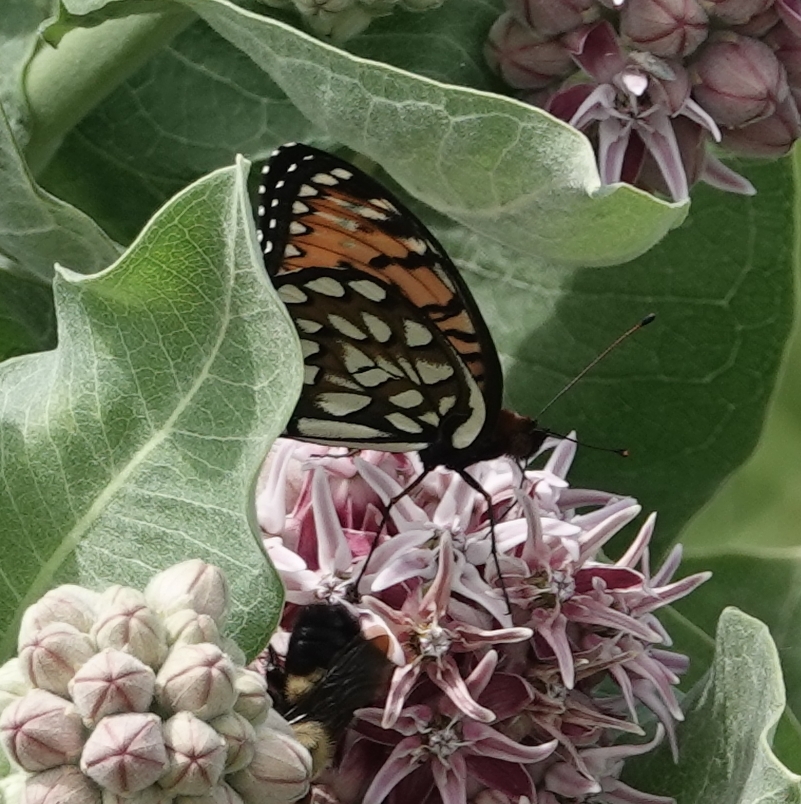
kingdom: Animalia
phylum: Arthropoda
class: Insecta
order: Lepidoptera
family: Nymphalidae
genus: Speyeria
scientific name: Speyeria idalia
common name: Regal fritillary
